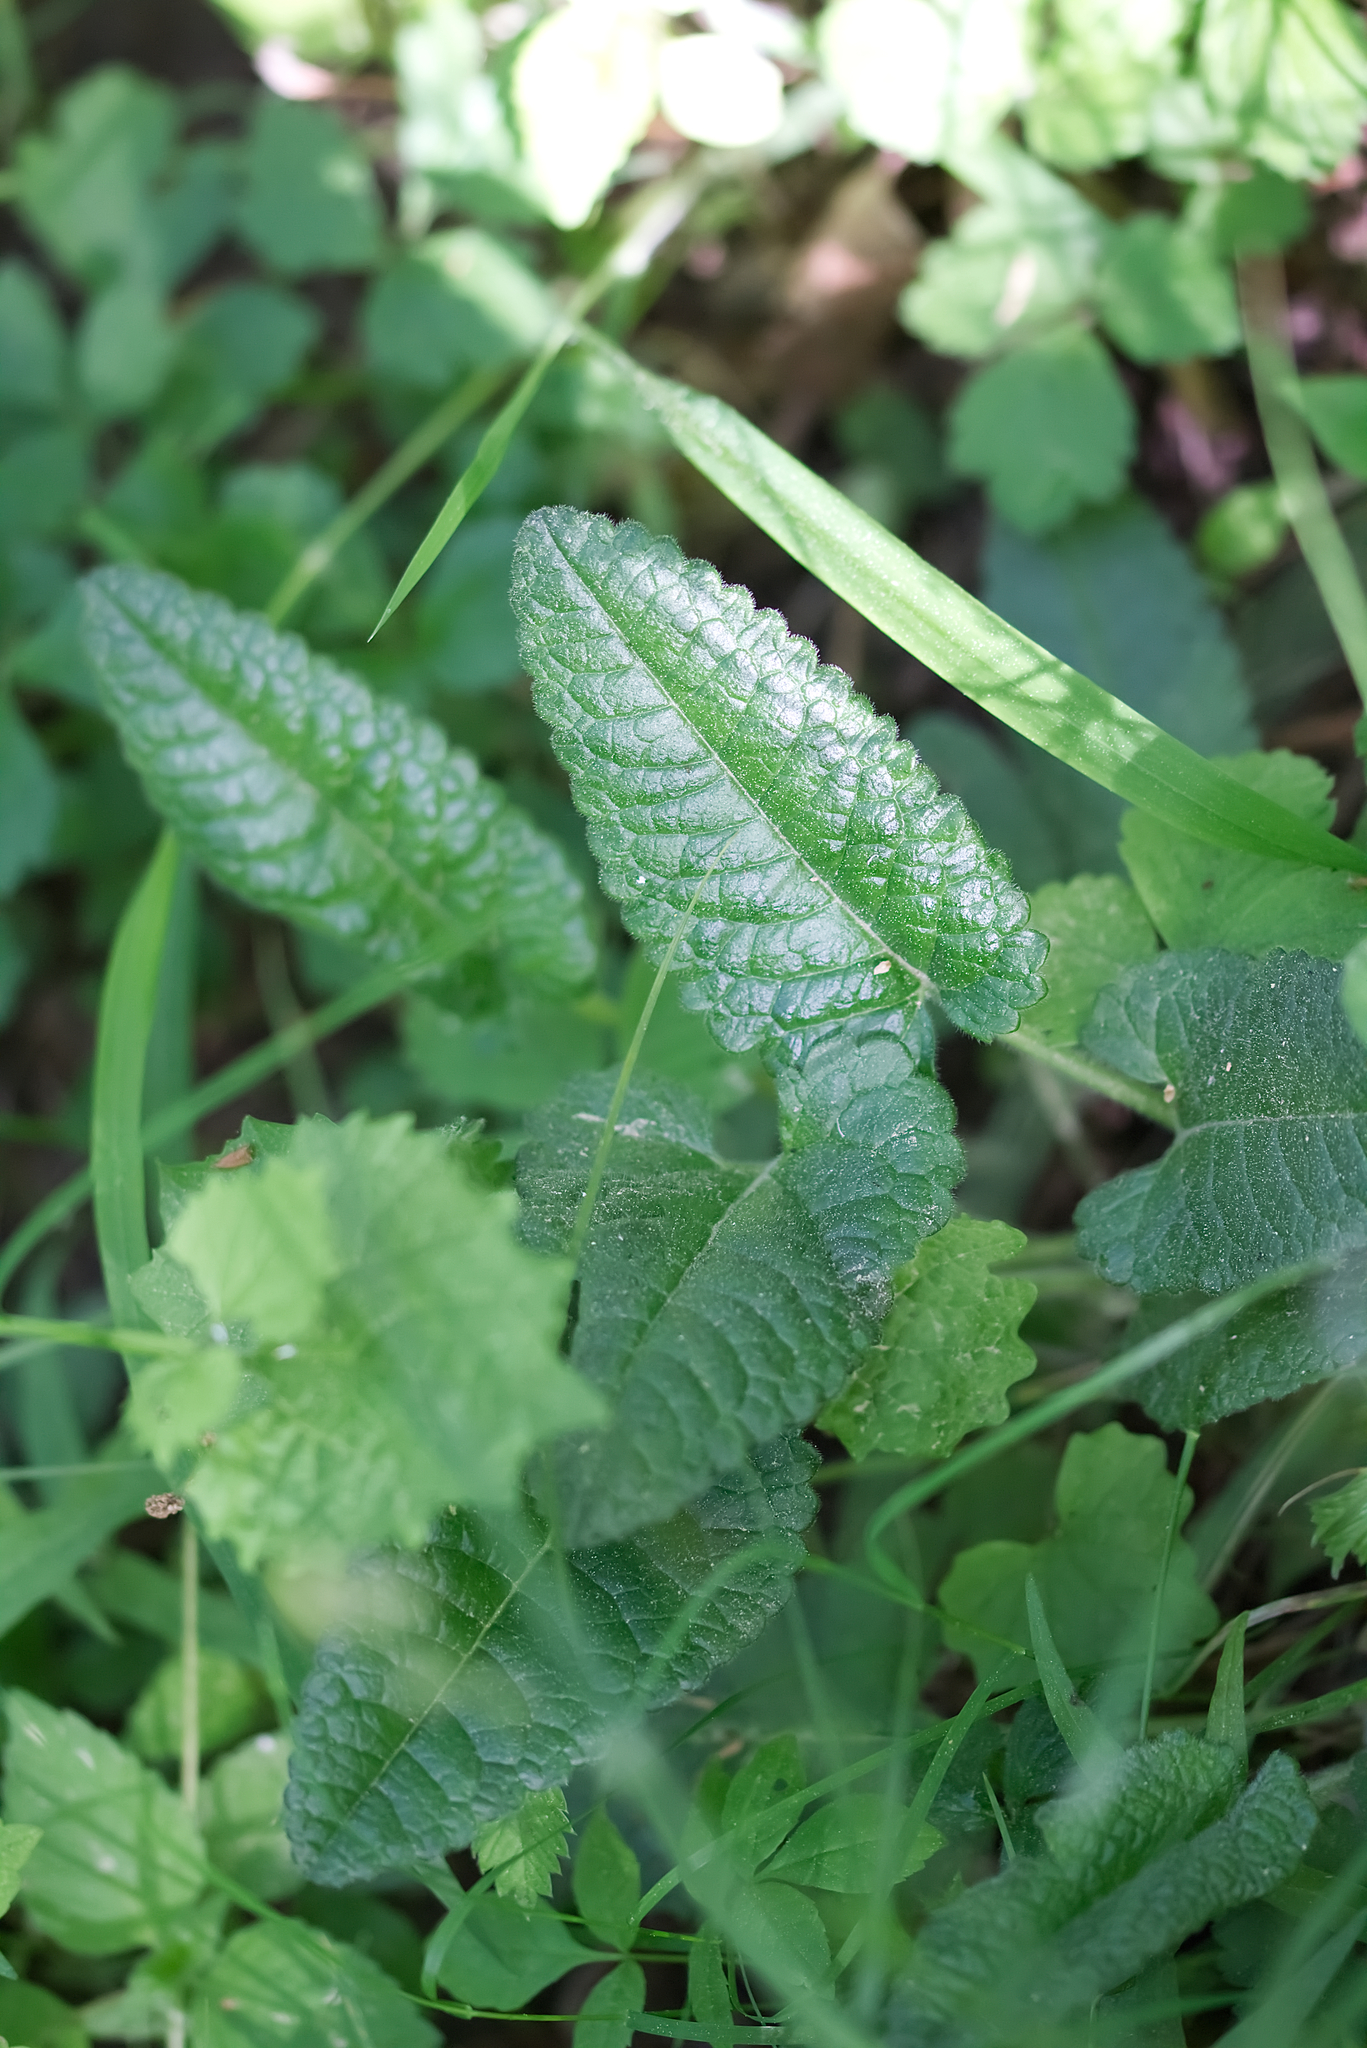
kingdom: Plantae
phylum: Tracheophyta
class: Magnoliopsida
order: Lamiales
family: Lamiaceae
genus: Betonica
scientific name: Betonica officinalis
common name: Bishop's-wort
